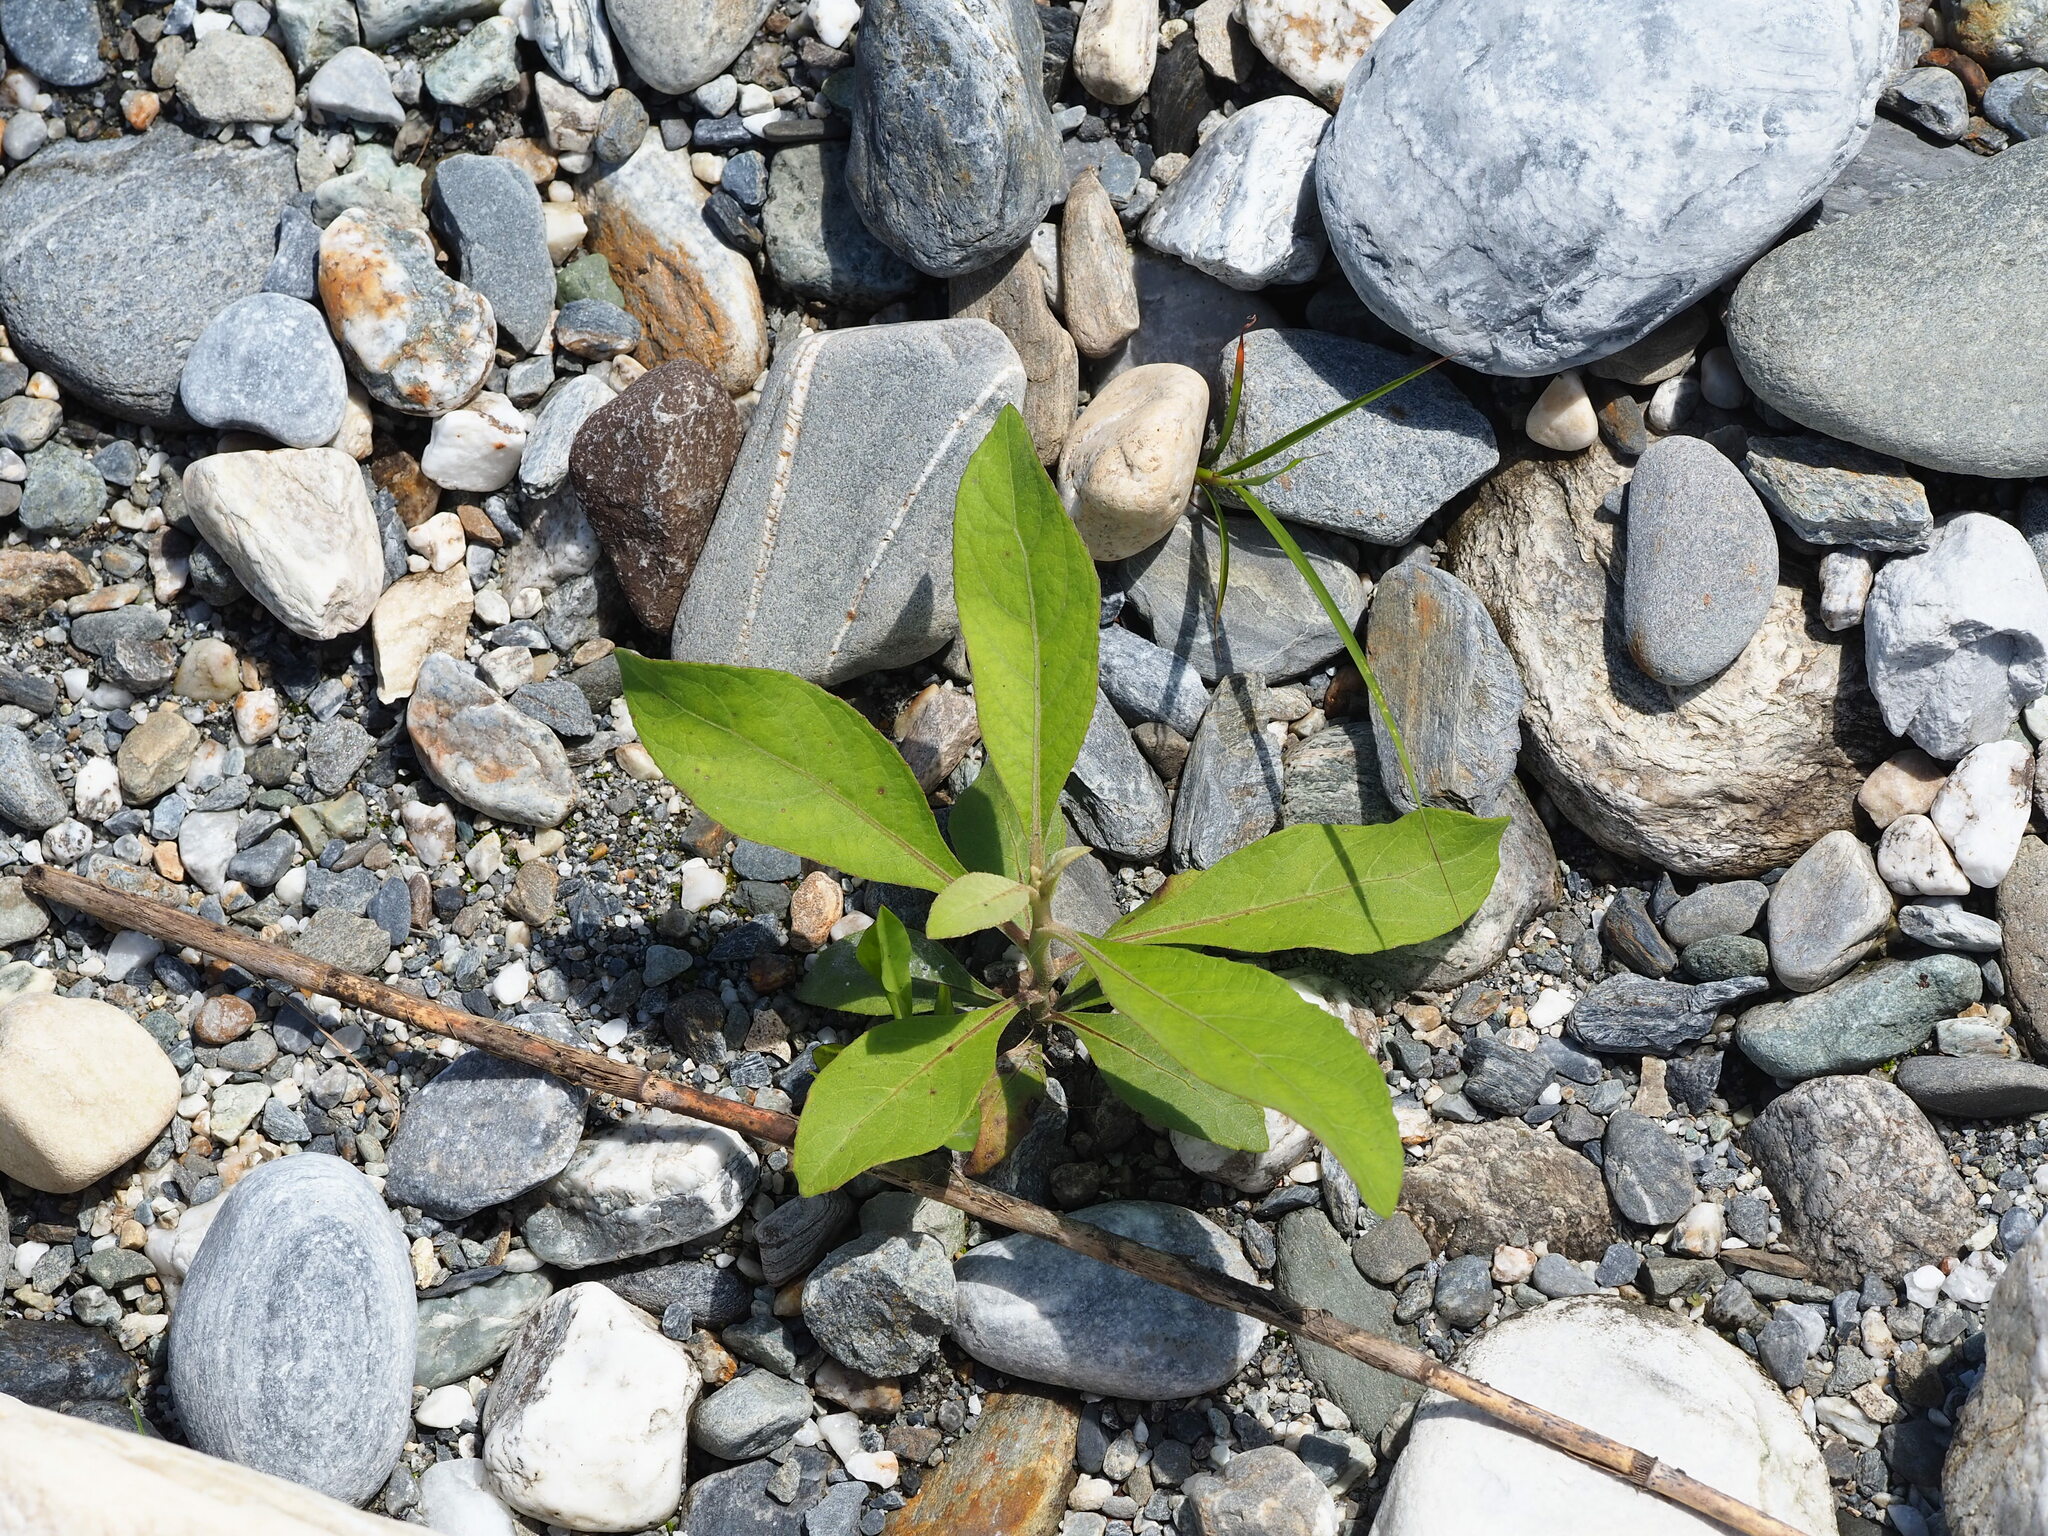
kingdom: Plantae
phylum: Tracheophyta
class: Magnoliopsida
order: Asterales
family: Asteraceae
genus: Pluchea
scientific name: Pluchea carolinensis
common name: Marsh fleabane
